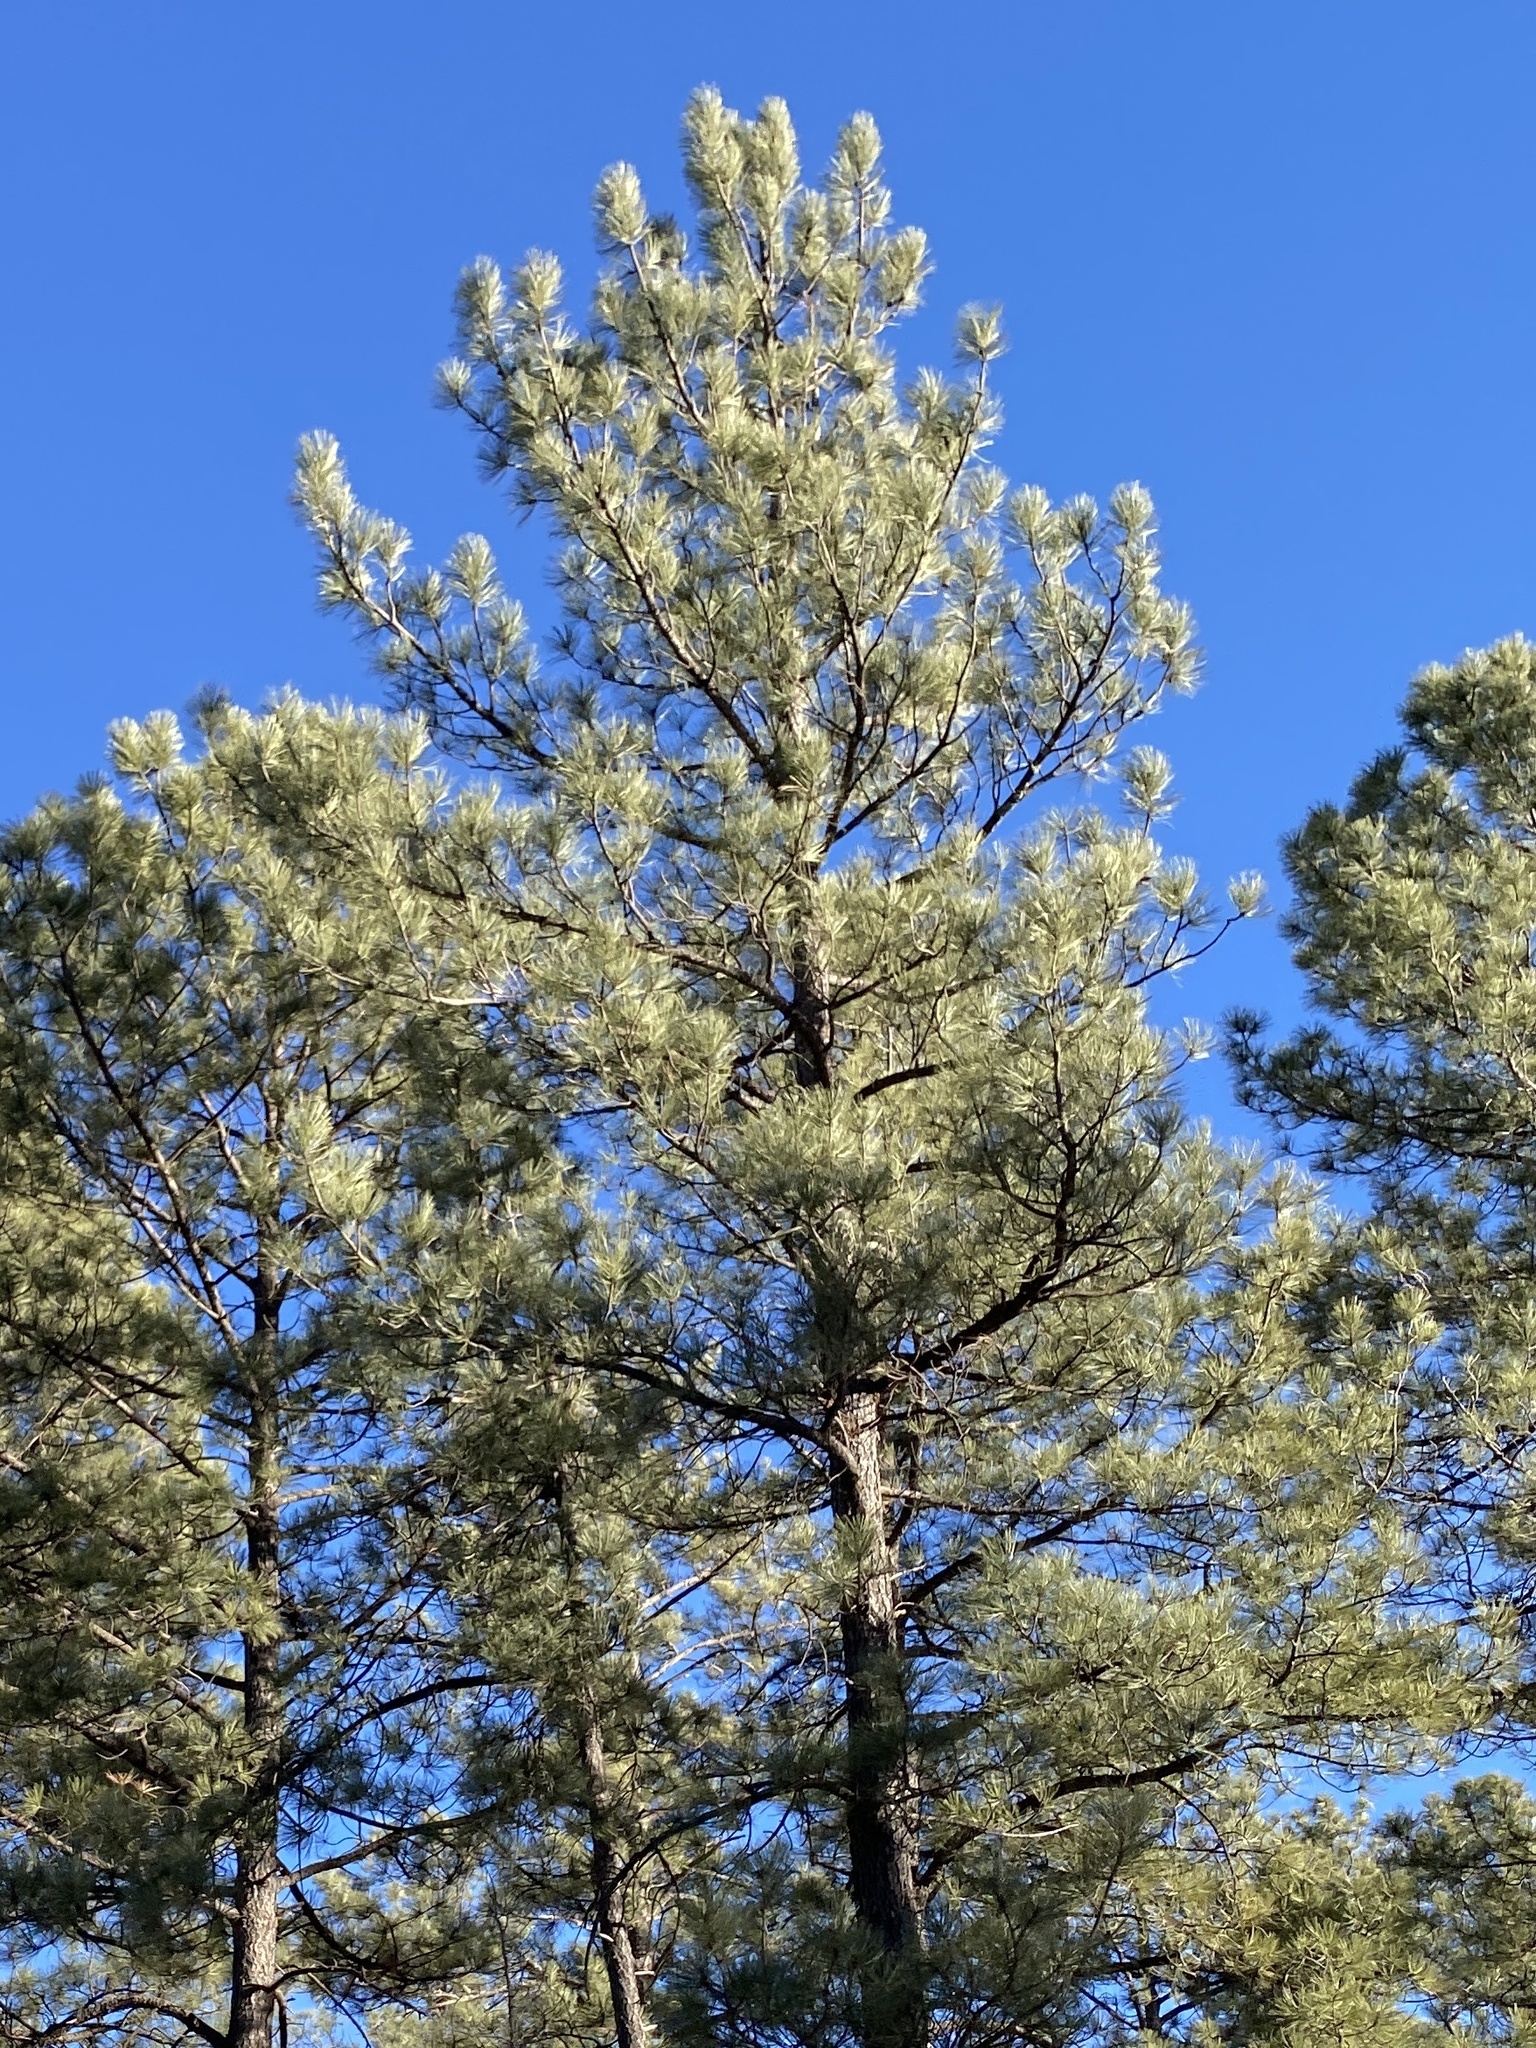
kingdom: Plantae
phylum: Tracheophyta
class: Pinopsida
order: Pinales
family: Pinaceae
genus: Pinus
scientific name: Pinus ponderosa
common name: Western yellow-pine
